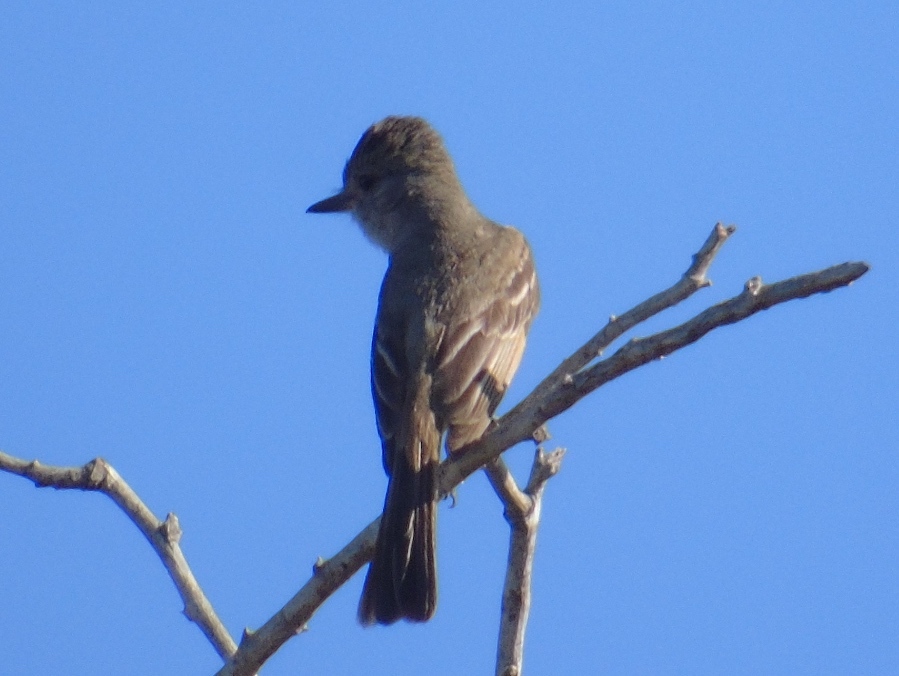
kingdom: Animalia
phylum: Chordata
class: Aves
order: Passeriformes
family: Tyrannidae
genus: Myiarchus
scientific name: Myiarchus
